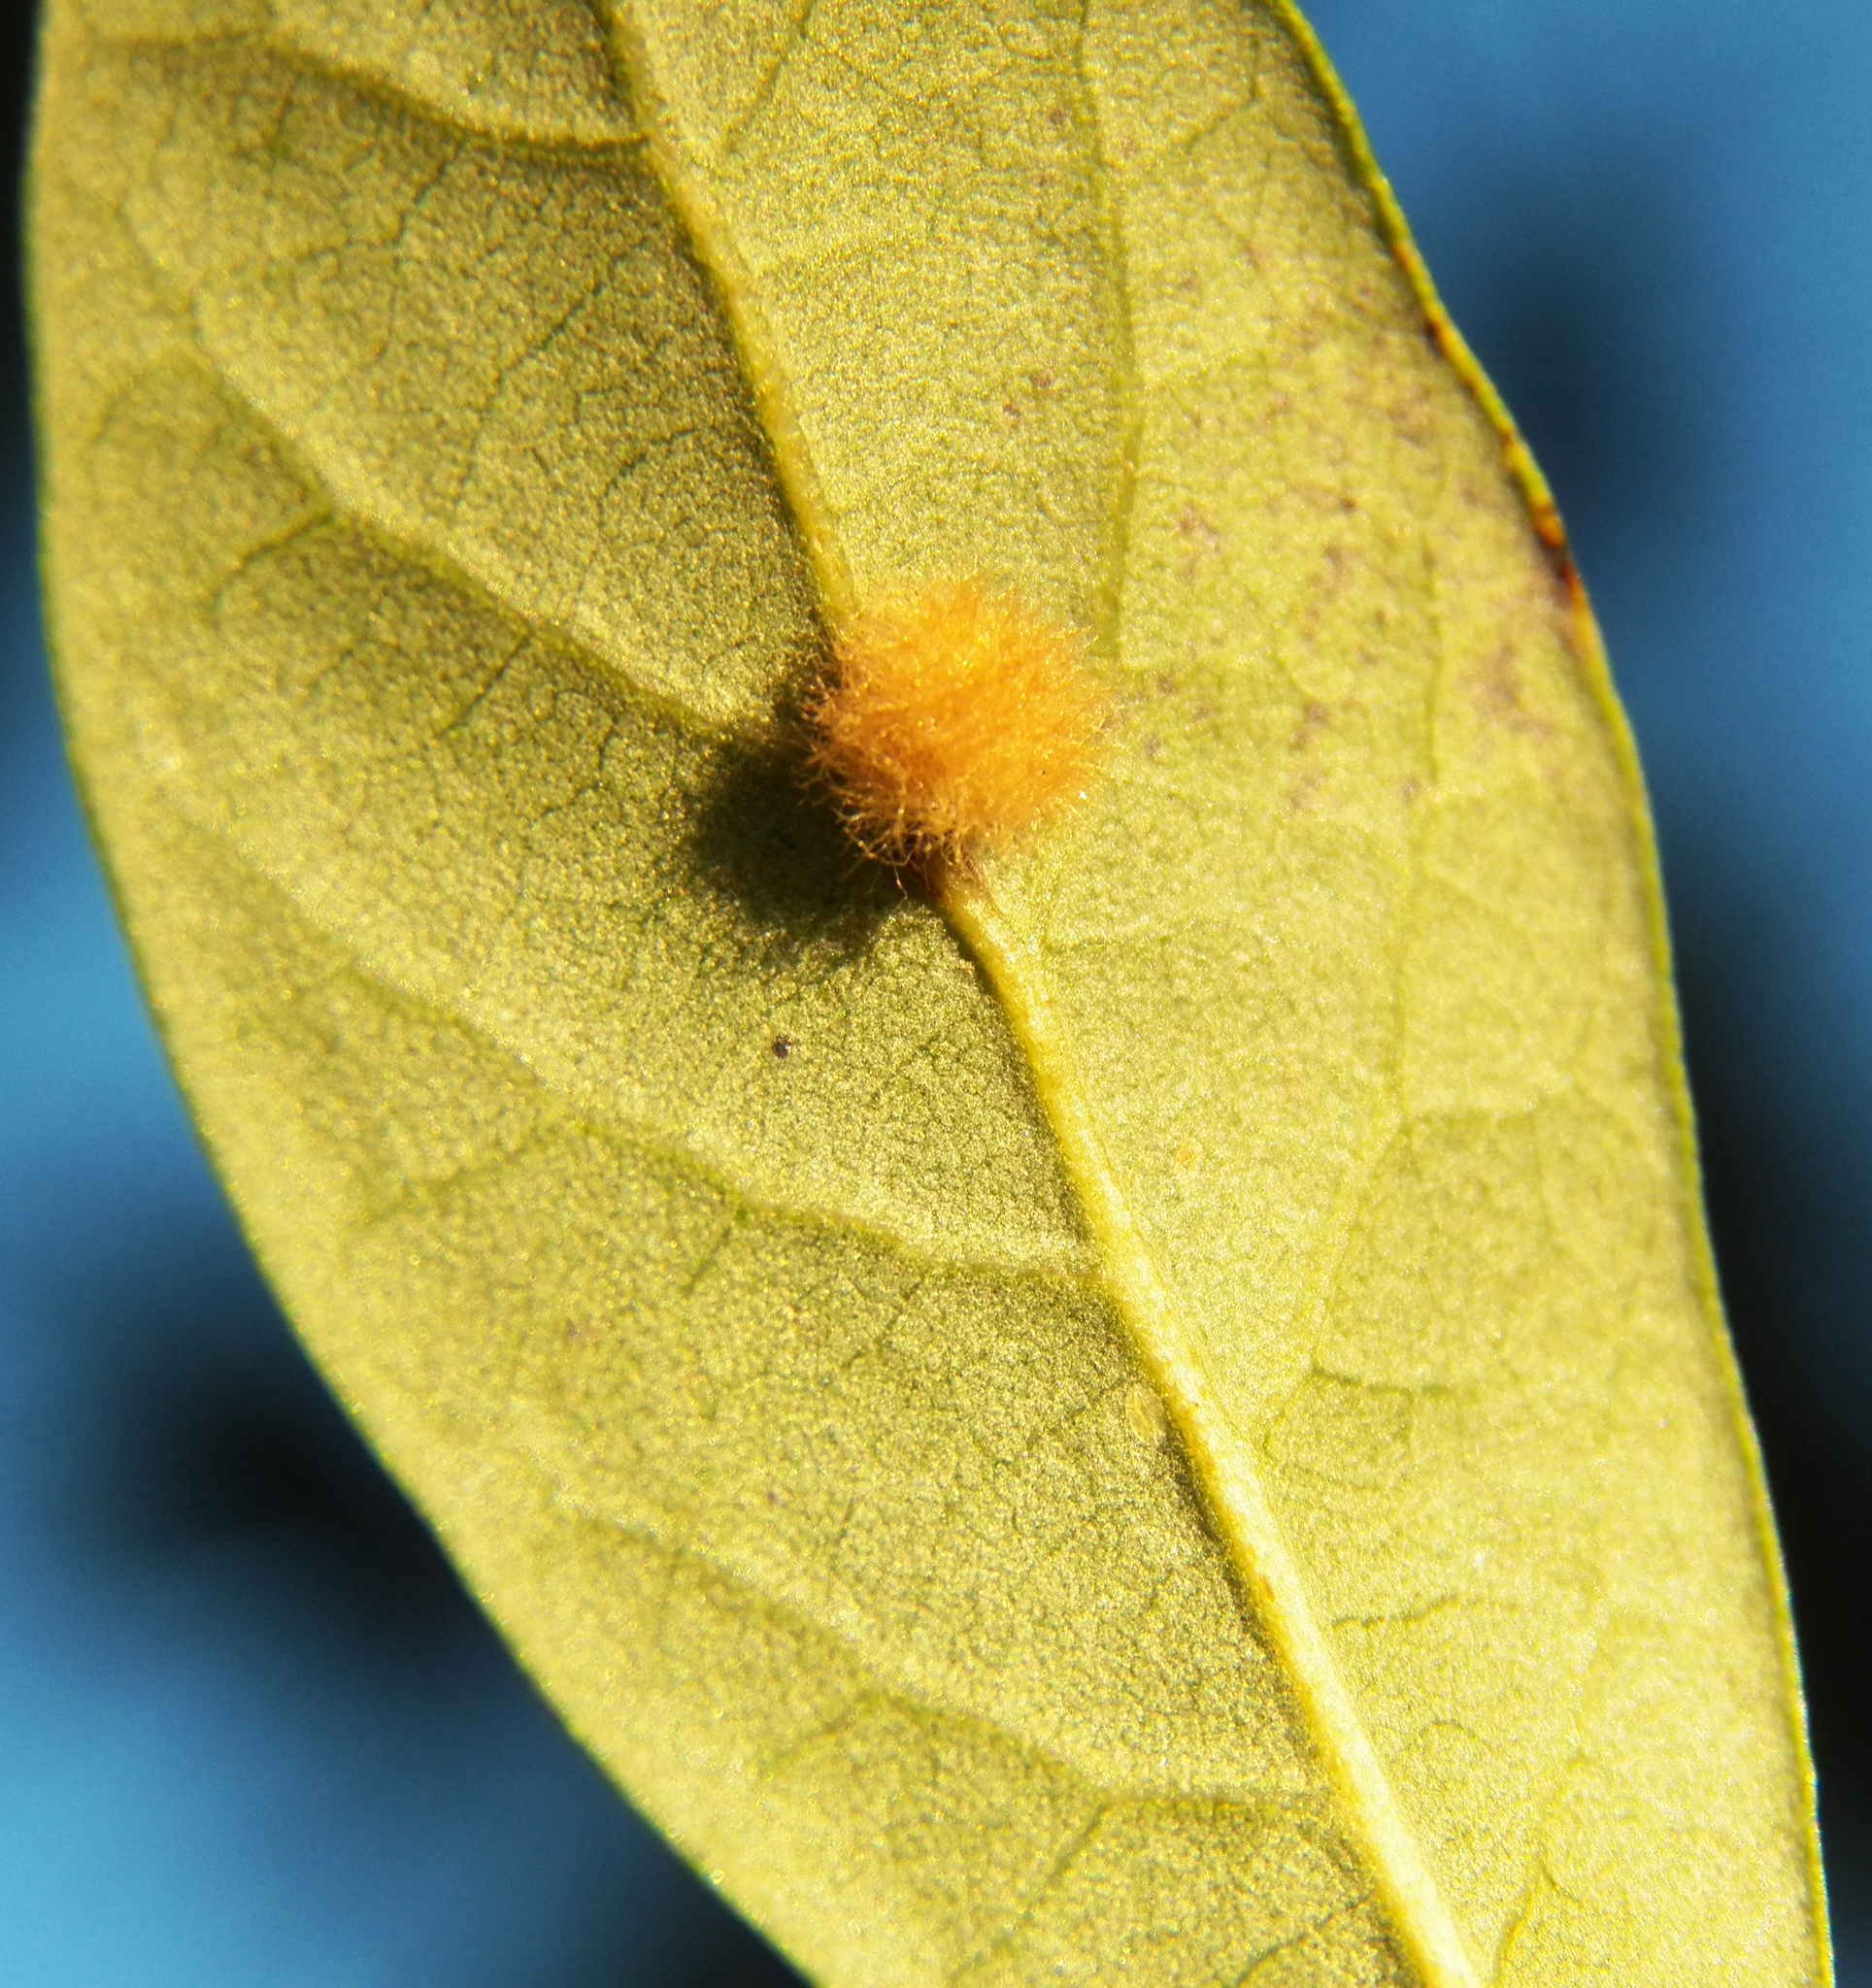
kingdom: Animalia
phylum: Arthropoda
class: Insecta
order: Hymenoptera
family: Cynipidae
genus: Andricus
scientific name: Andricus Druon quercuslanigerum
